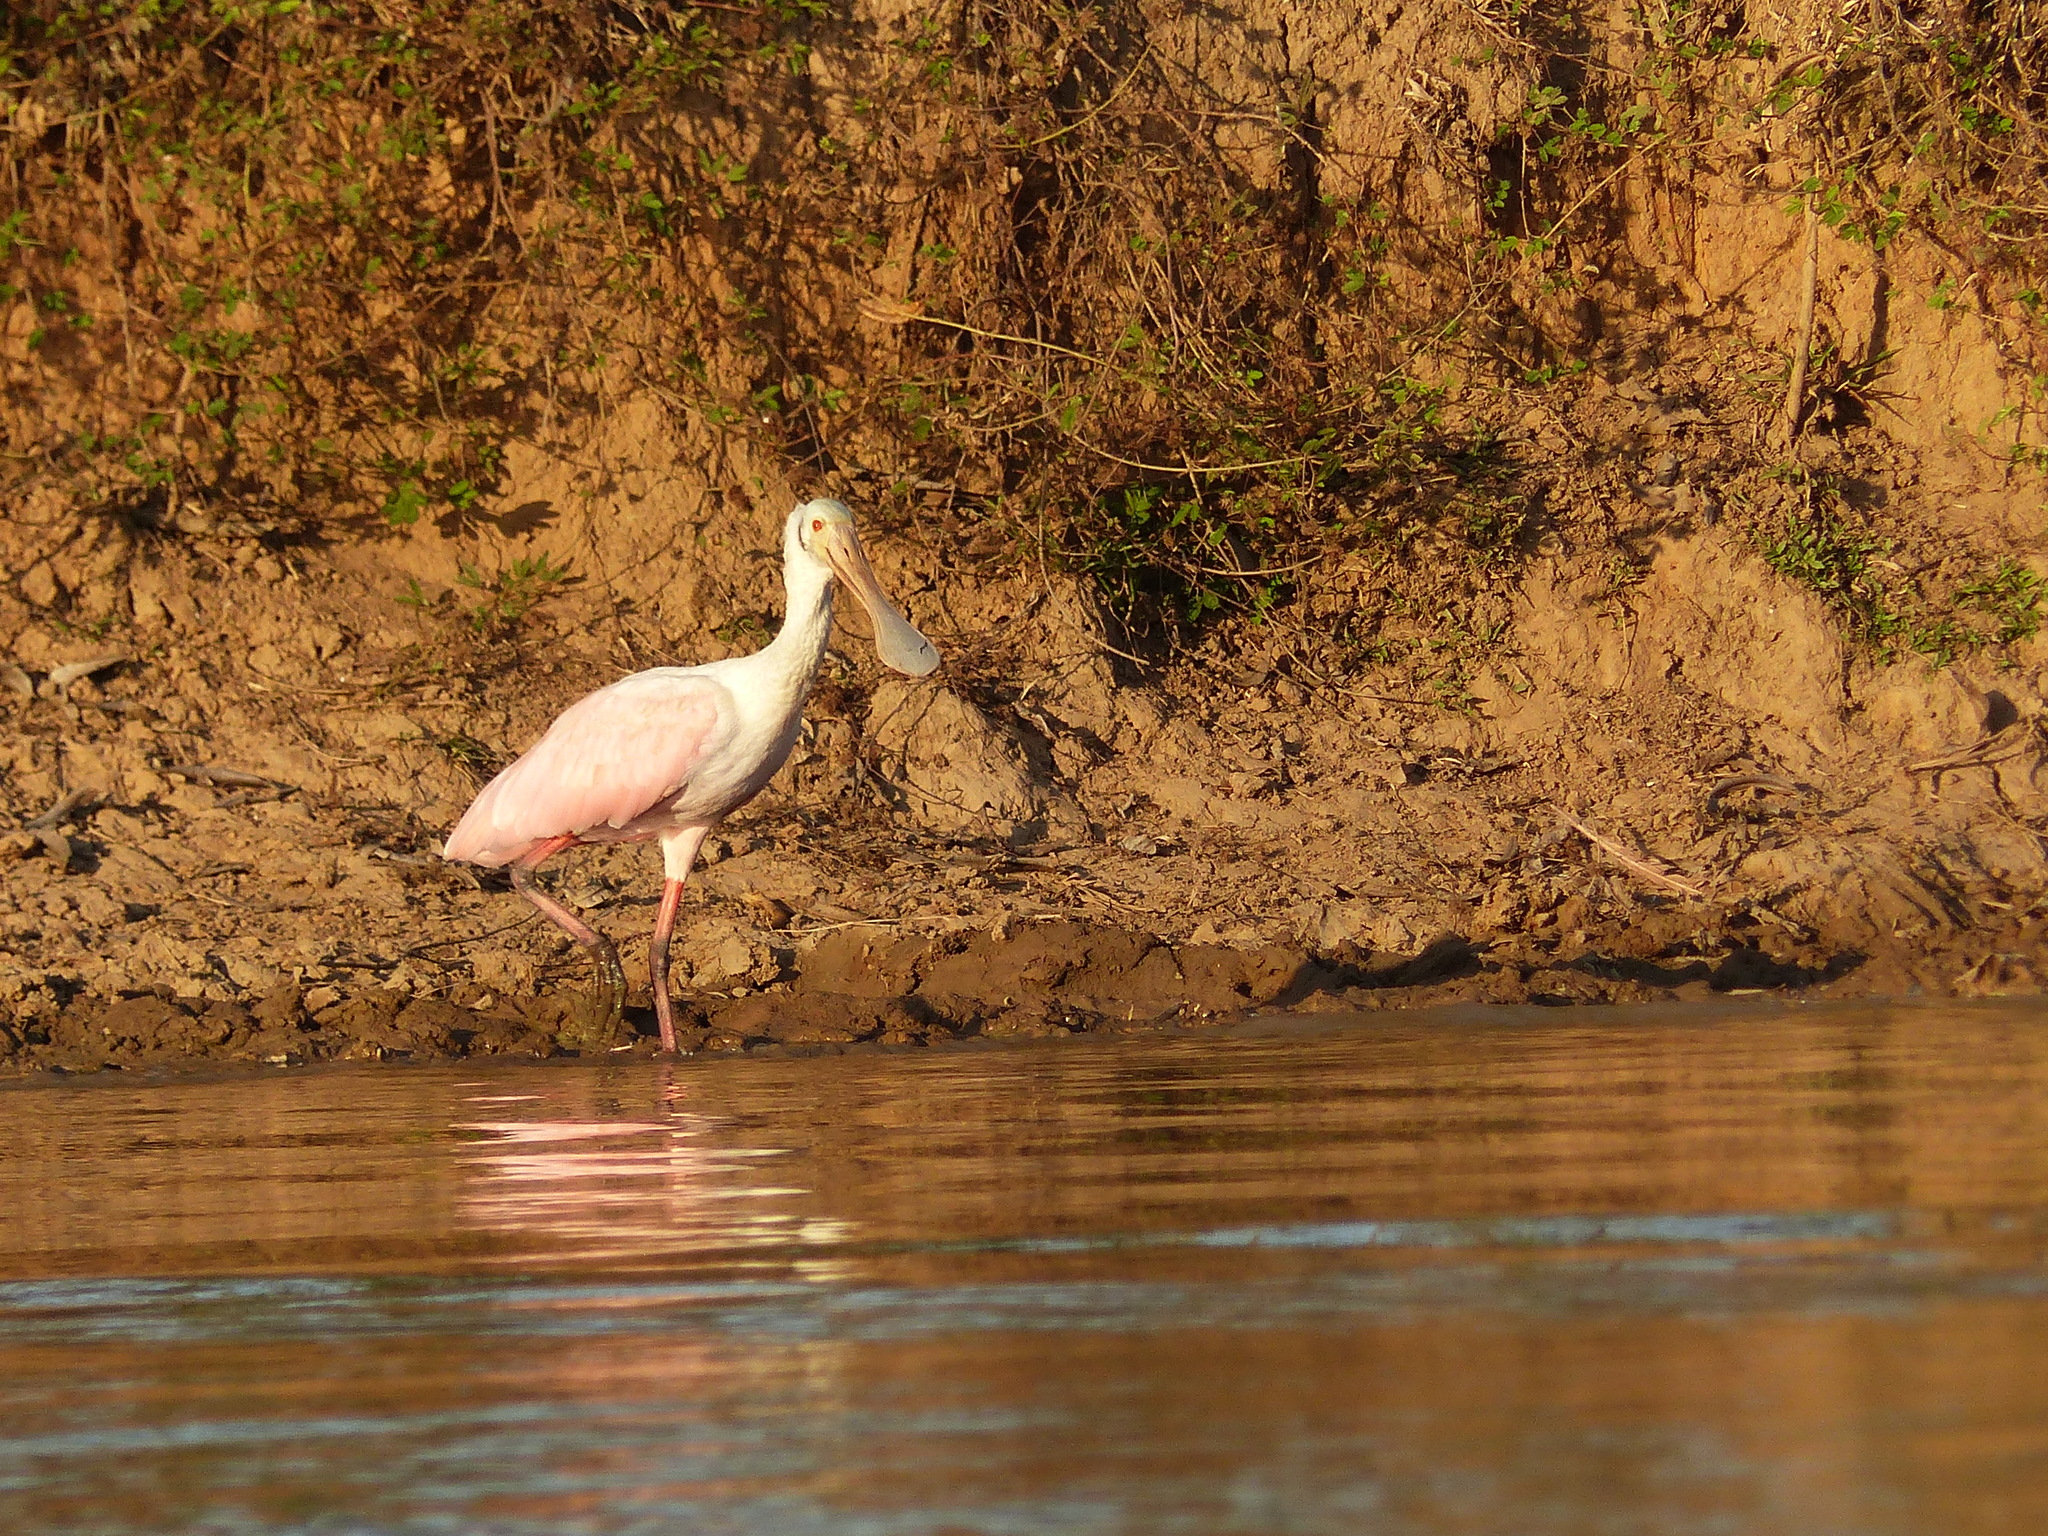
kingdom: Animalia
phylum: Chordata
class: Aves
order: Pelecaniformes
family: Threskiornithidae
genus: Platalea
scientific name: Platalea ajaja
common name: Roseate spoonbill
